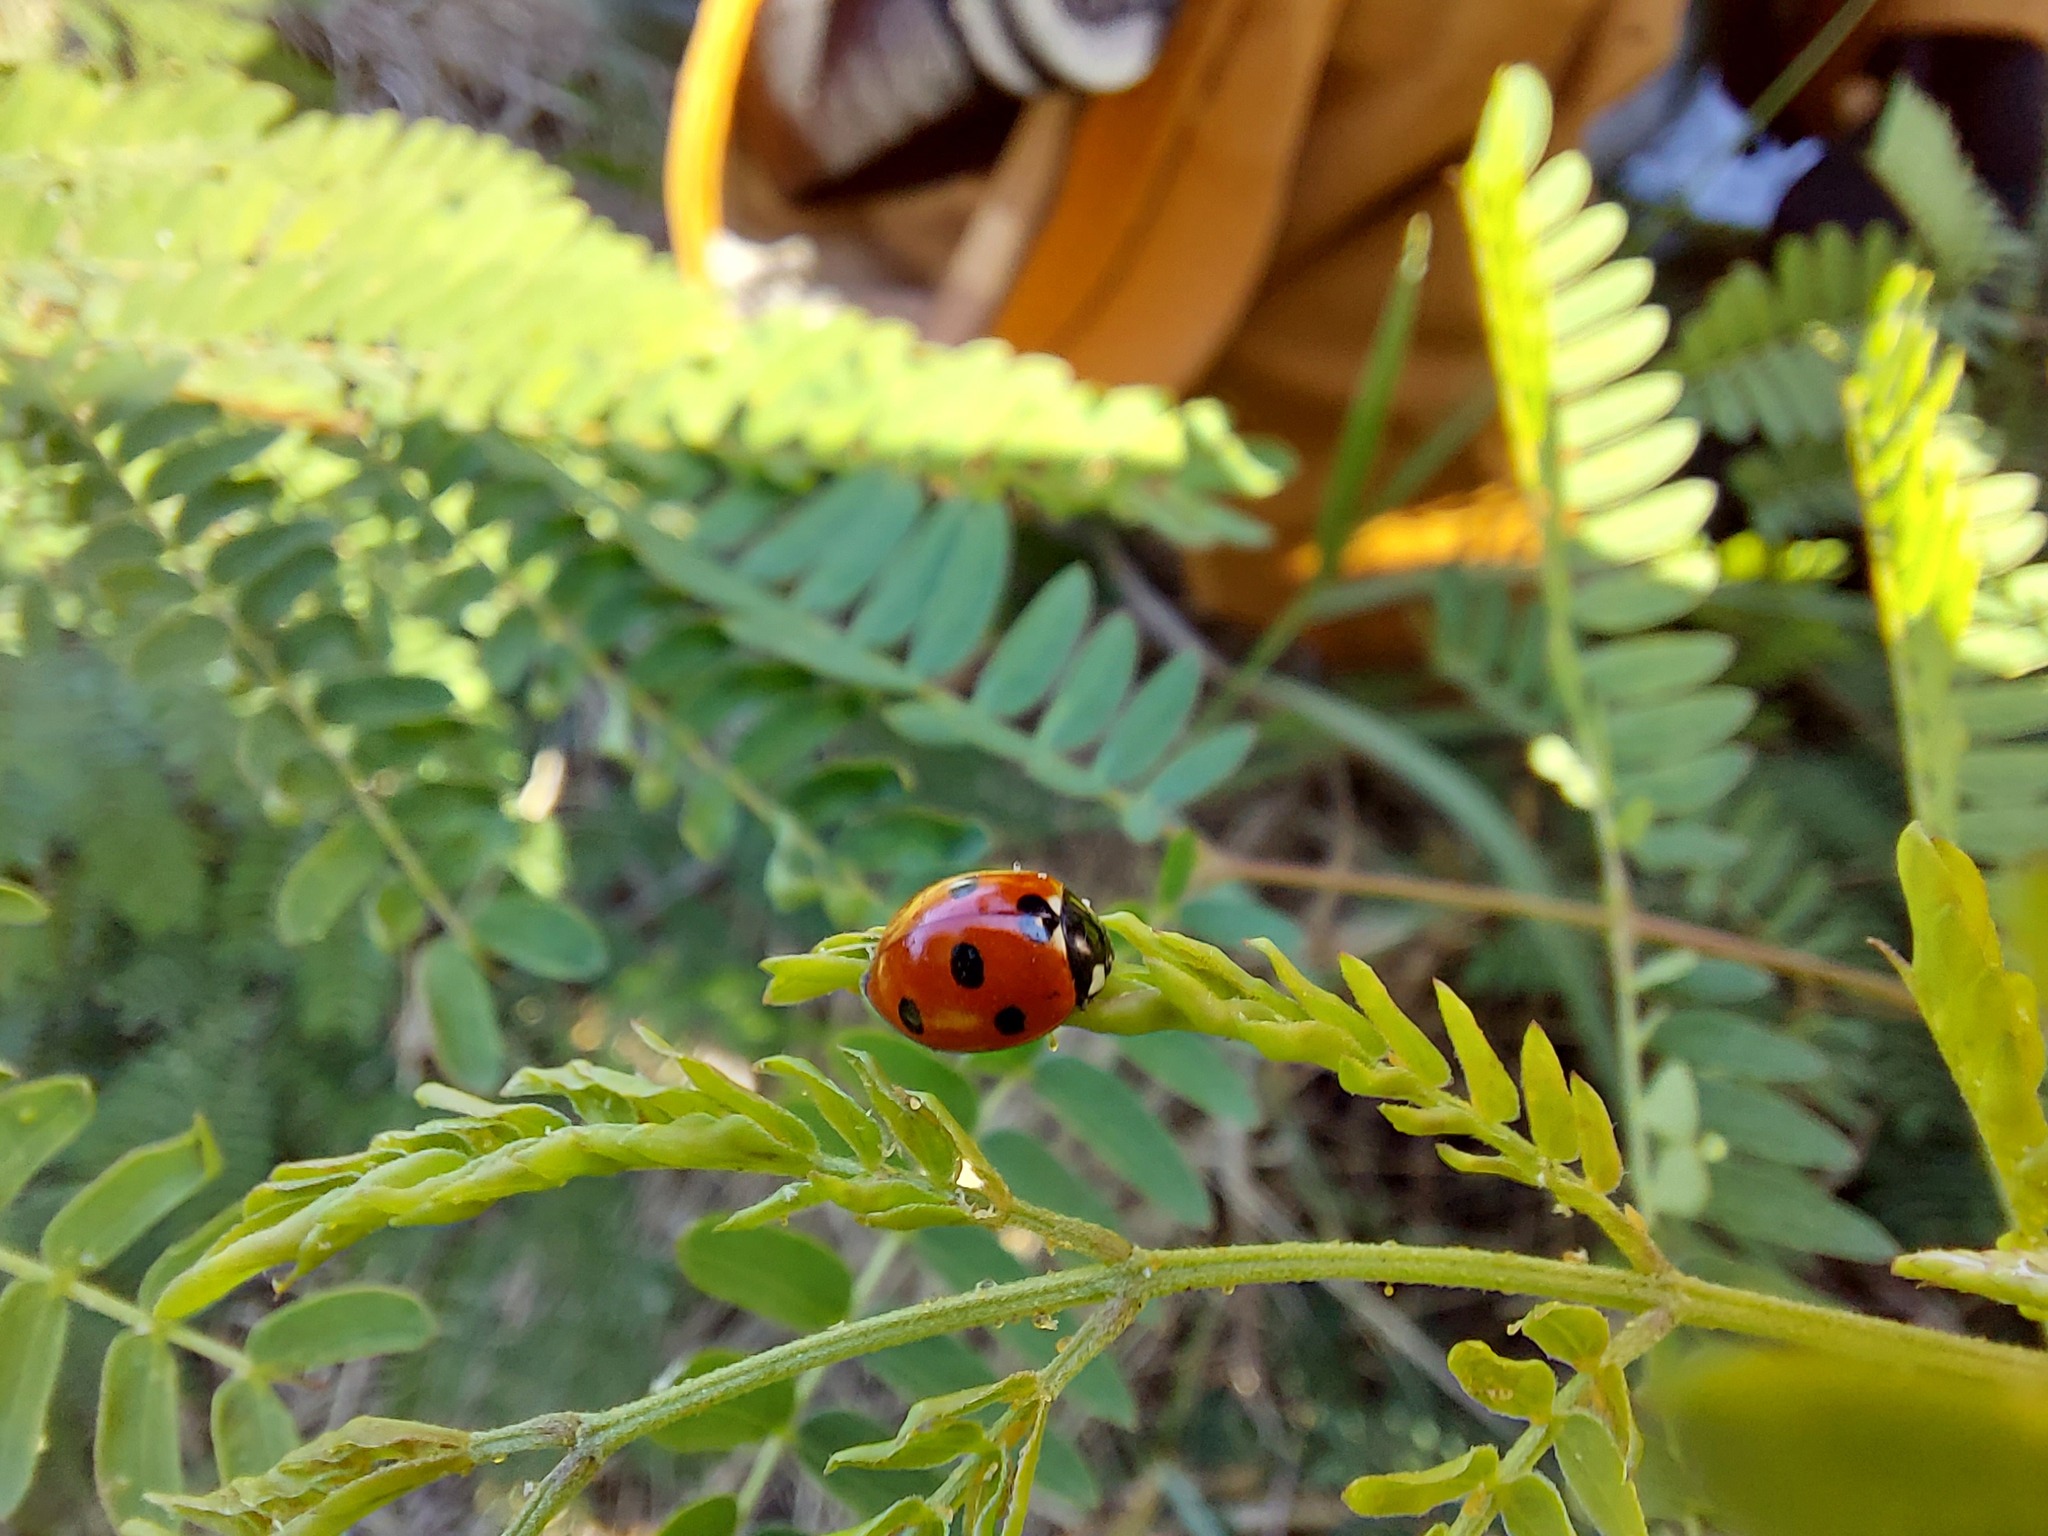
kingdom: Animalia
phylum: Arthropoda
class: Insecta
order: Coleoptera
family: Coccinellidae
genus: Coccinella
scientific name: Coccinella septempunctata
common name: Sevenspotted lady beetle
